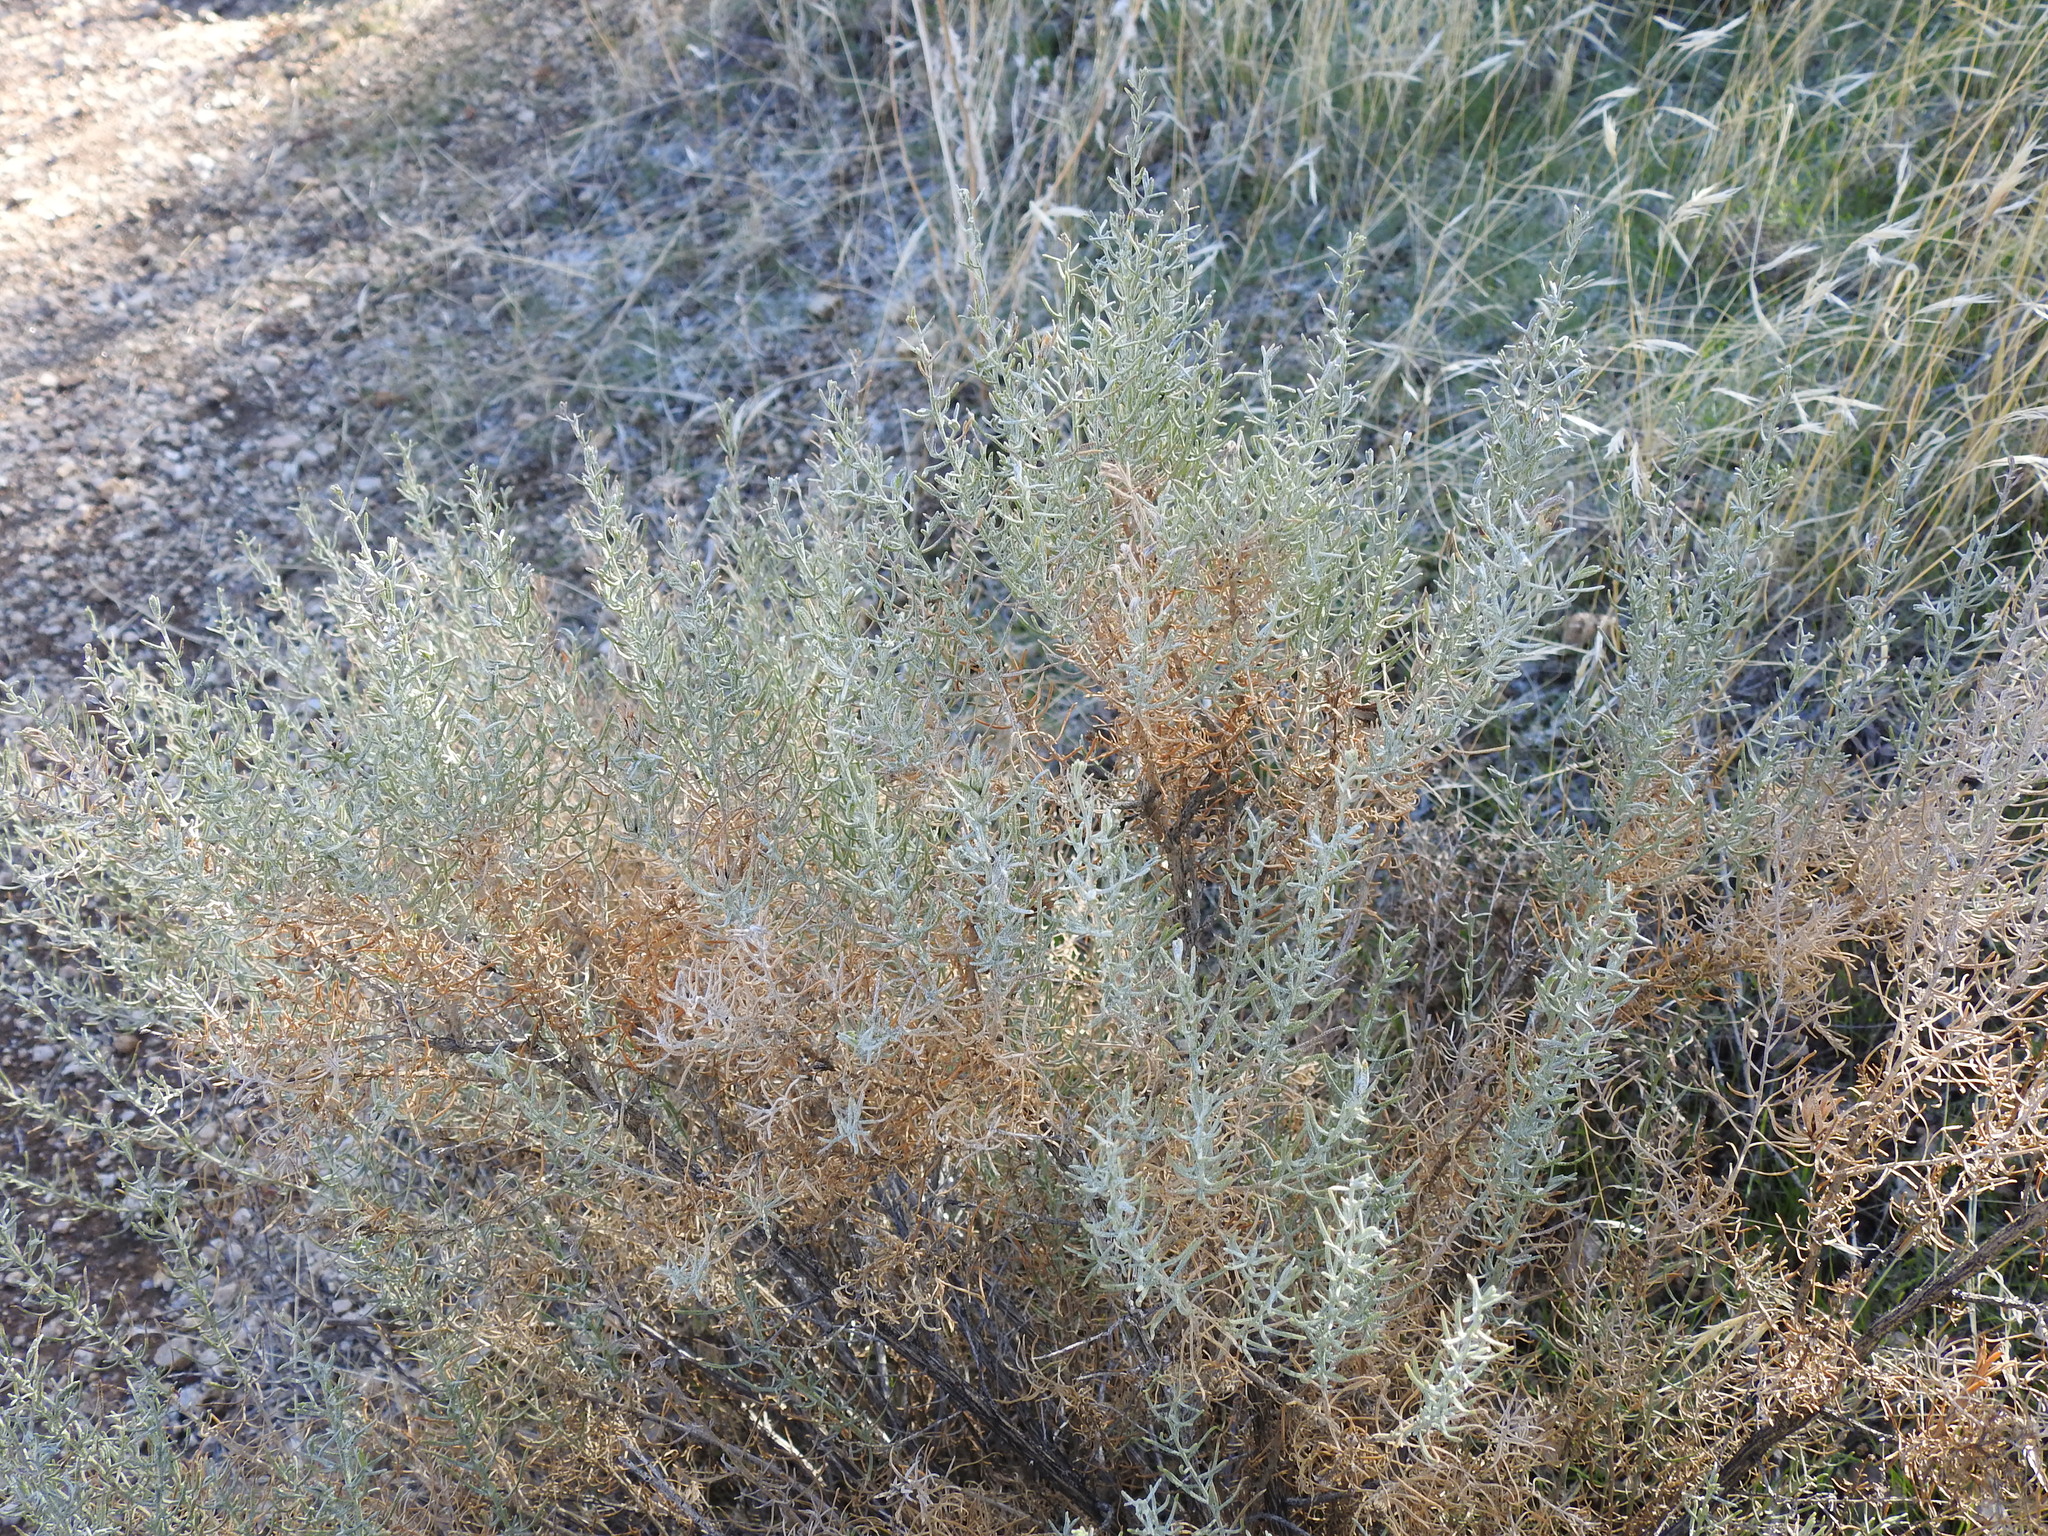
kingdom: Plantae
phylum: Tracheophyta
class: Magnoliopsida
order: Asterales
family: Asteraceae
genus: Ericameria
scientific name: Ericameria laricifolia
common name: Turpentine-bush
